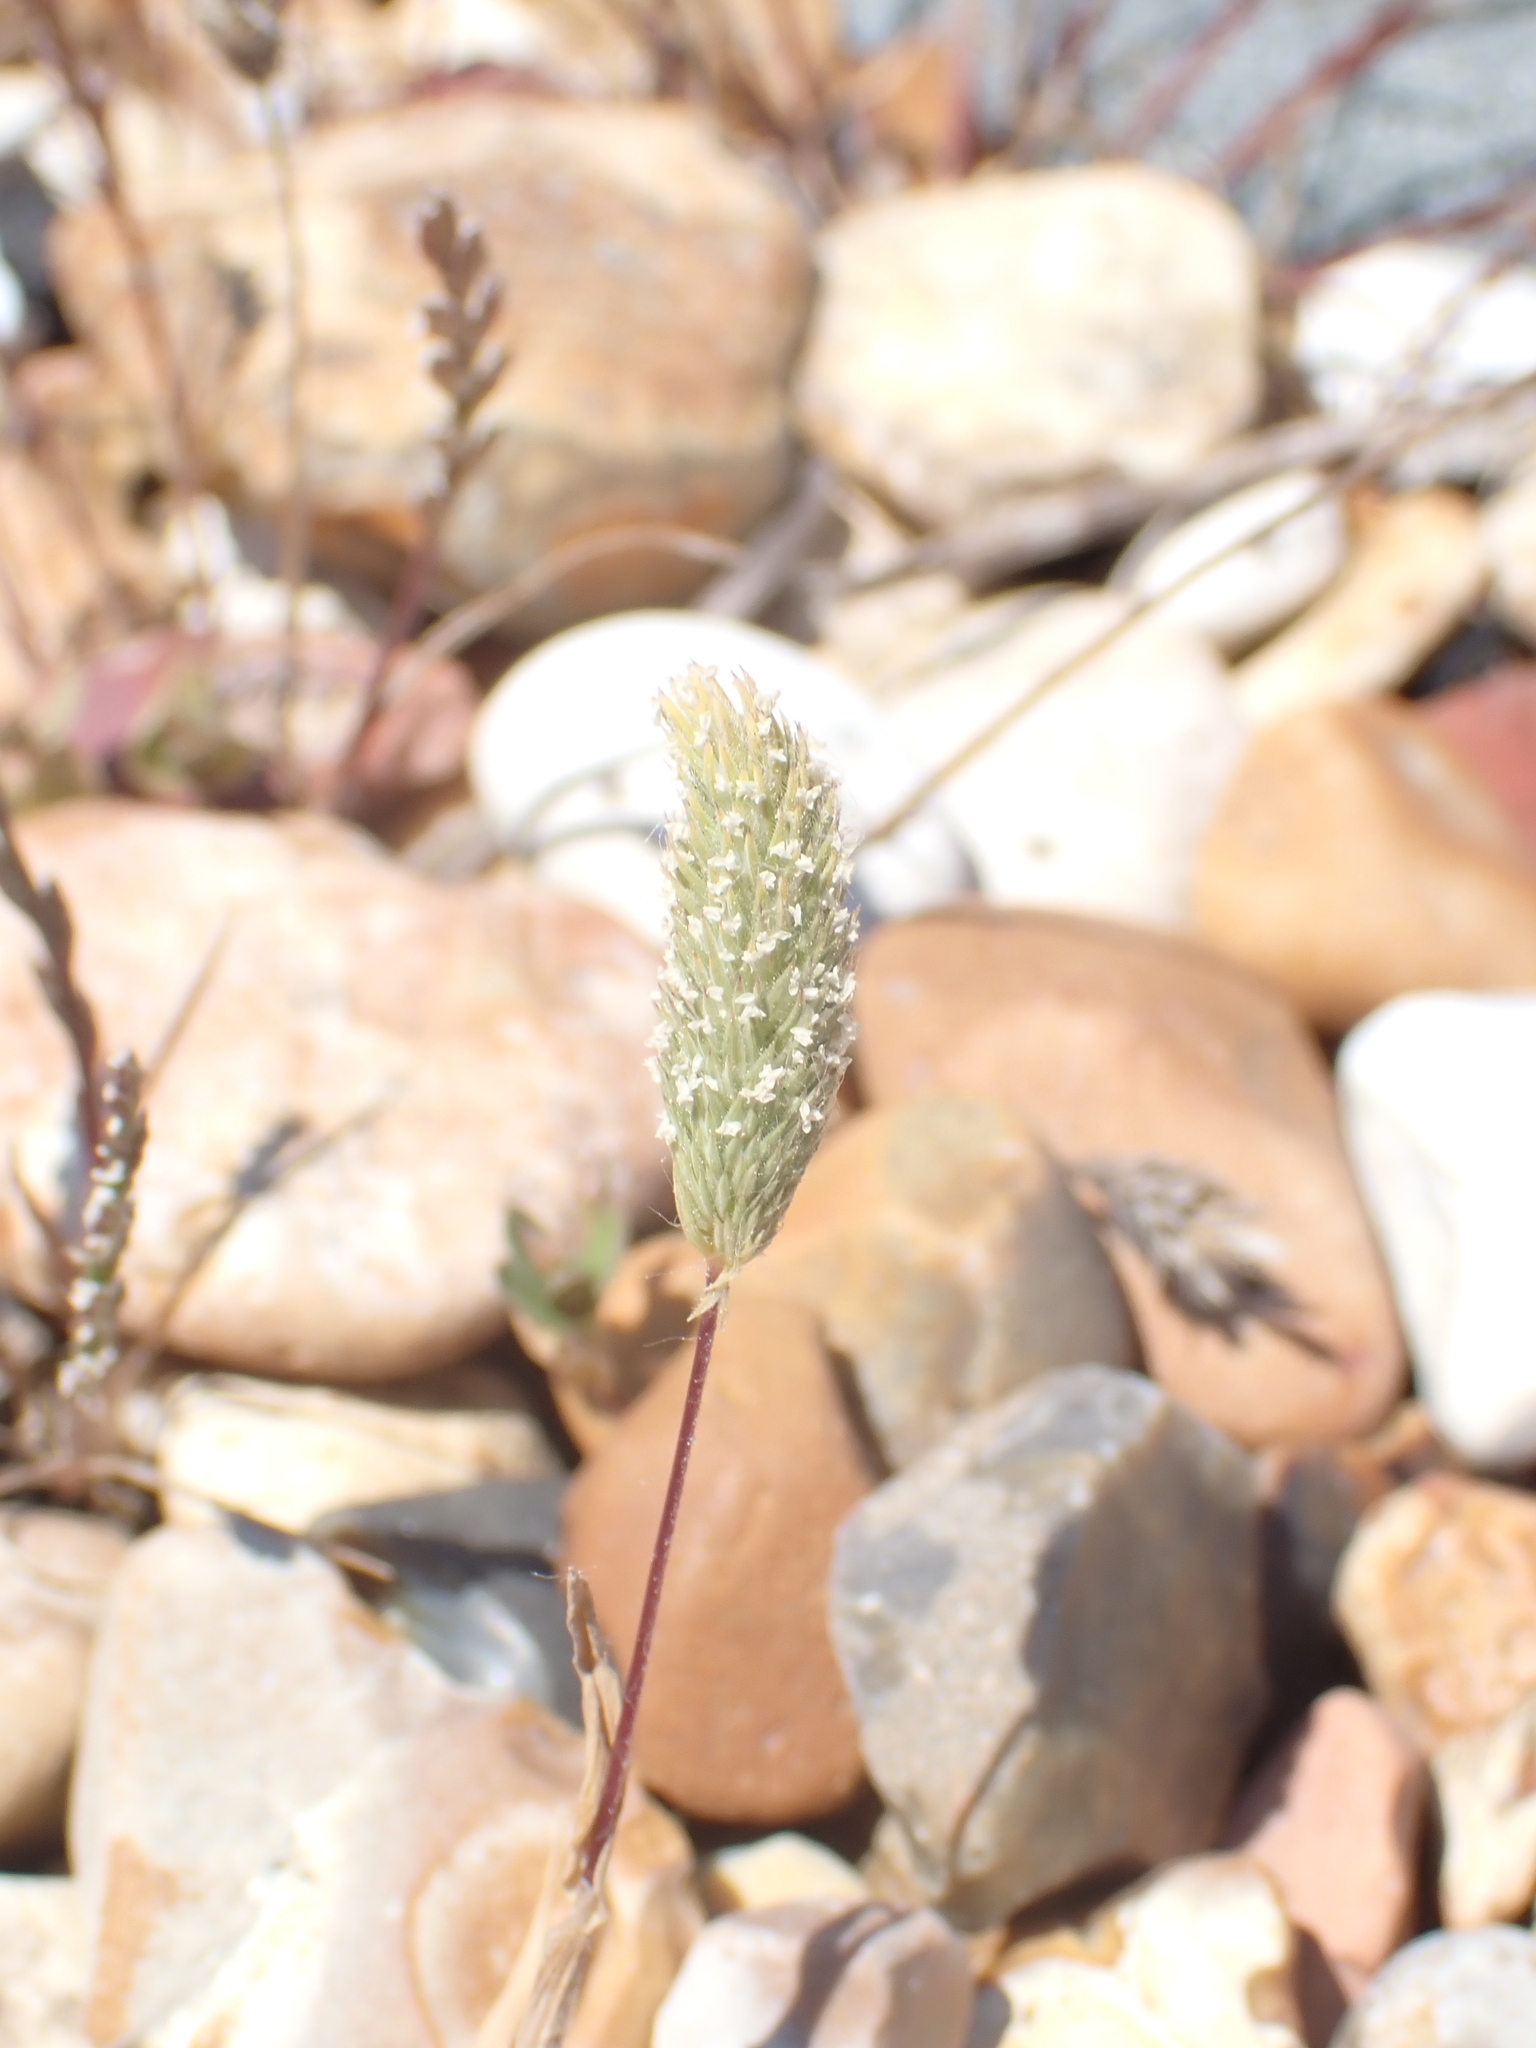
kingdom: Plantae
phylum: Tracheophyta
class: Liliopsida
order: Poales
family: Poaceae
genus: Phleum
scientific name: Phleum arenarium
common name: Sand cat's-tail
